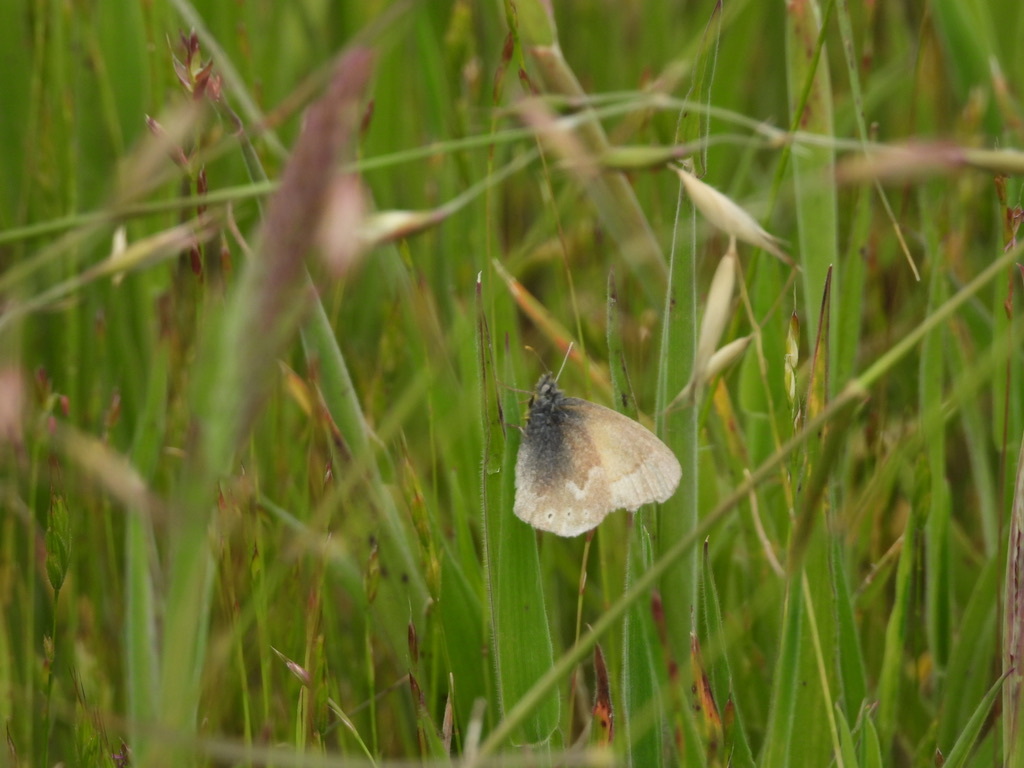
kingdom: Animalia
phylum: Arthropoda
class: Insecta
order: Lepidoptera
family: Nymphalidae
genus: Coenonympha
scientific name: Coenonympha california
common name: Common ringlet
